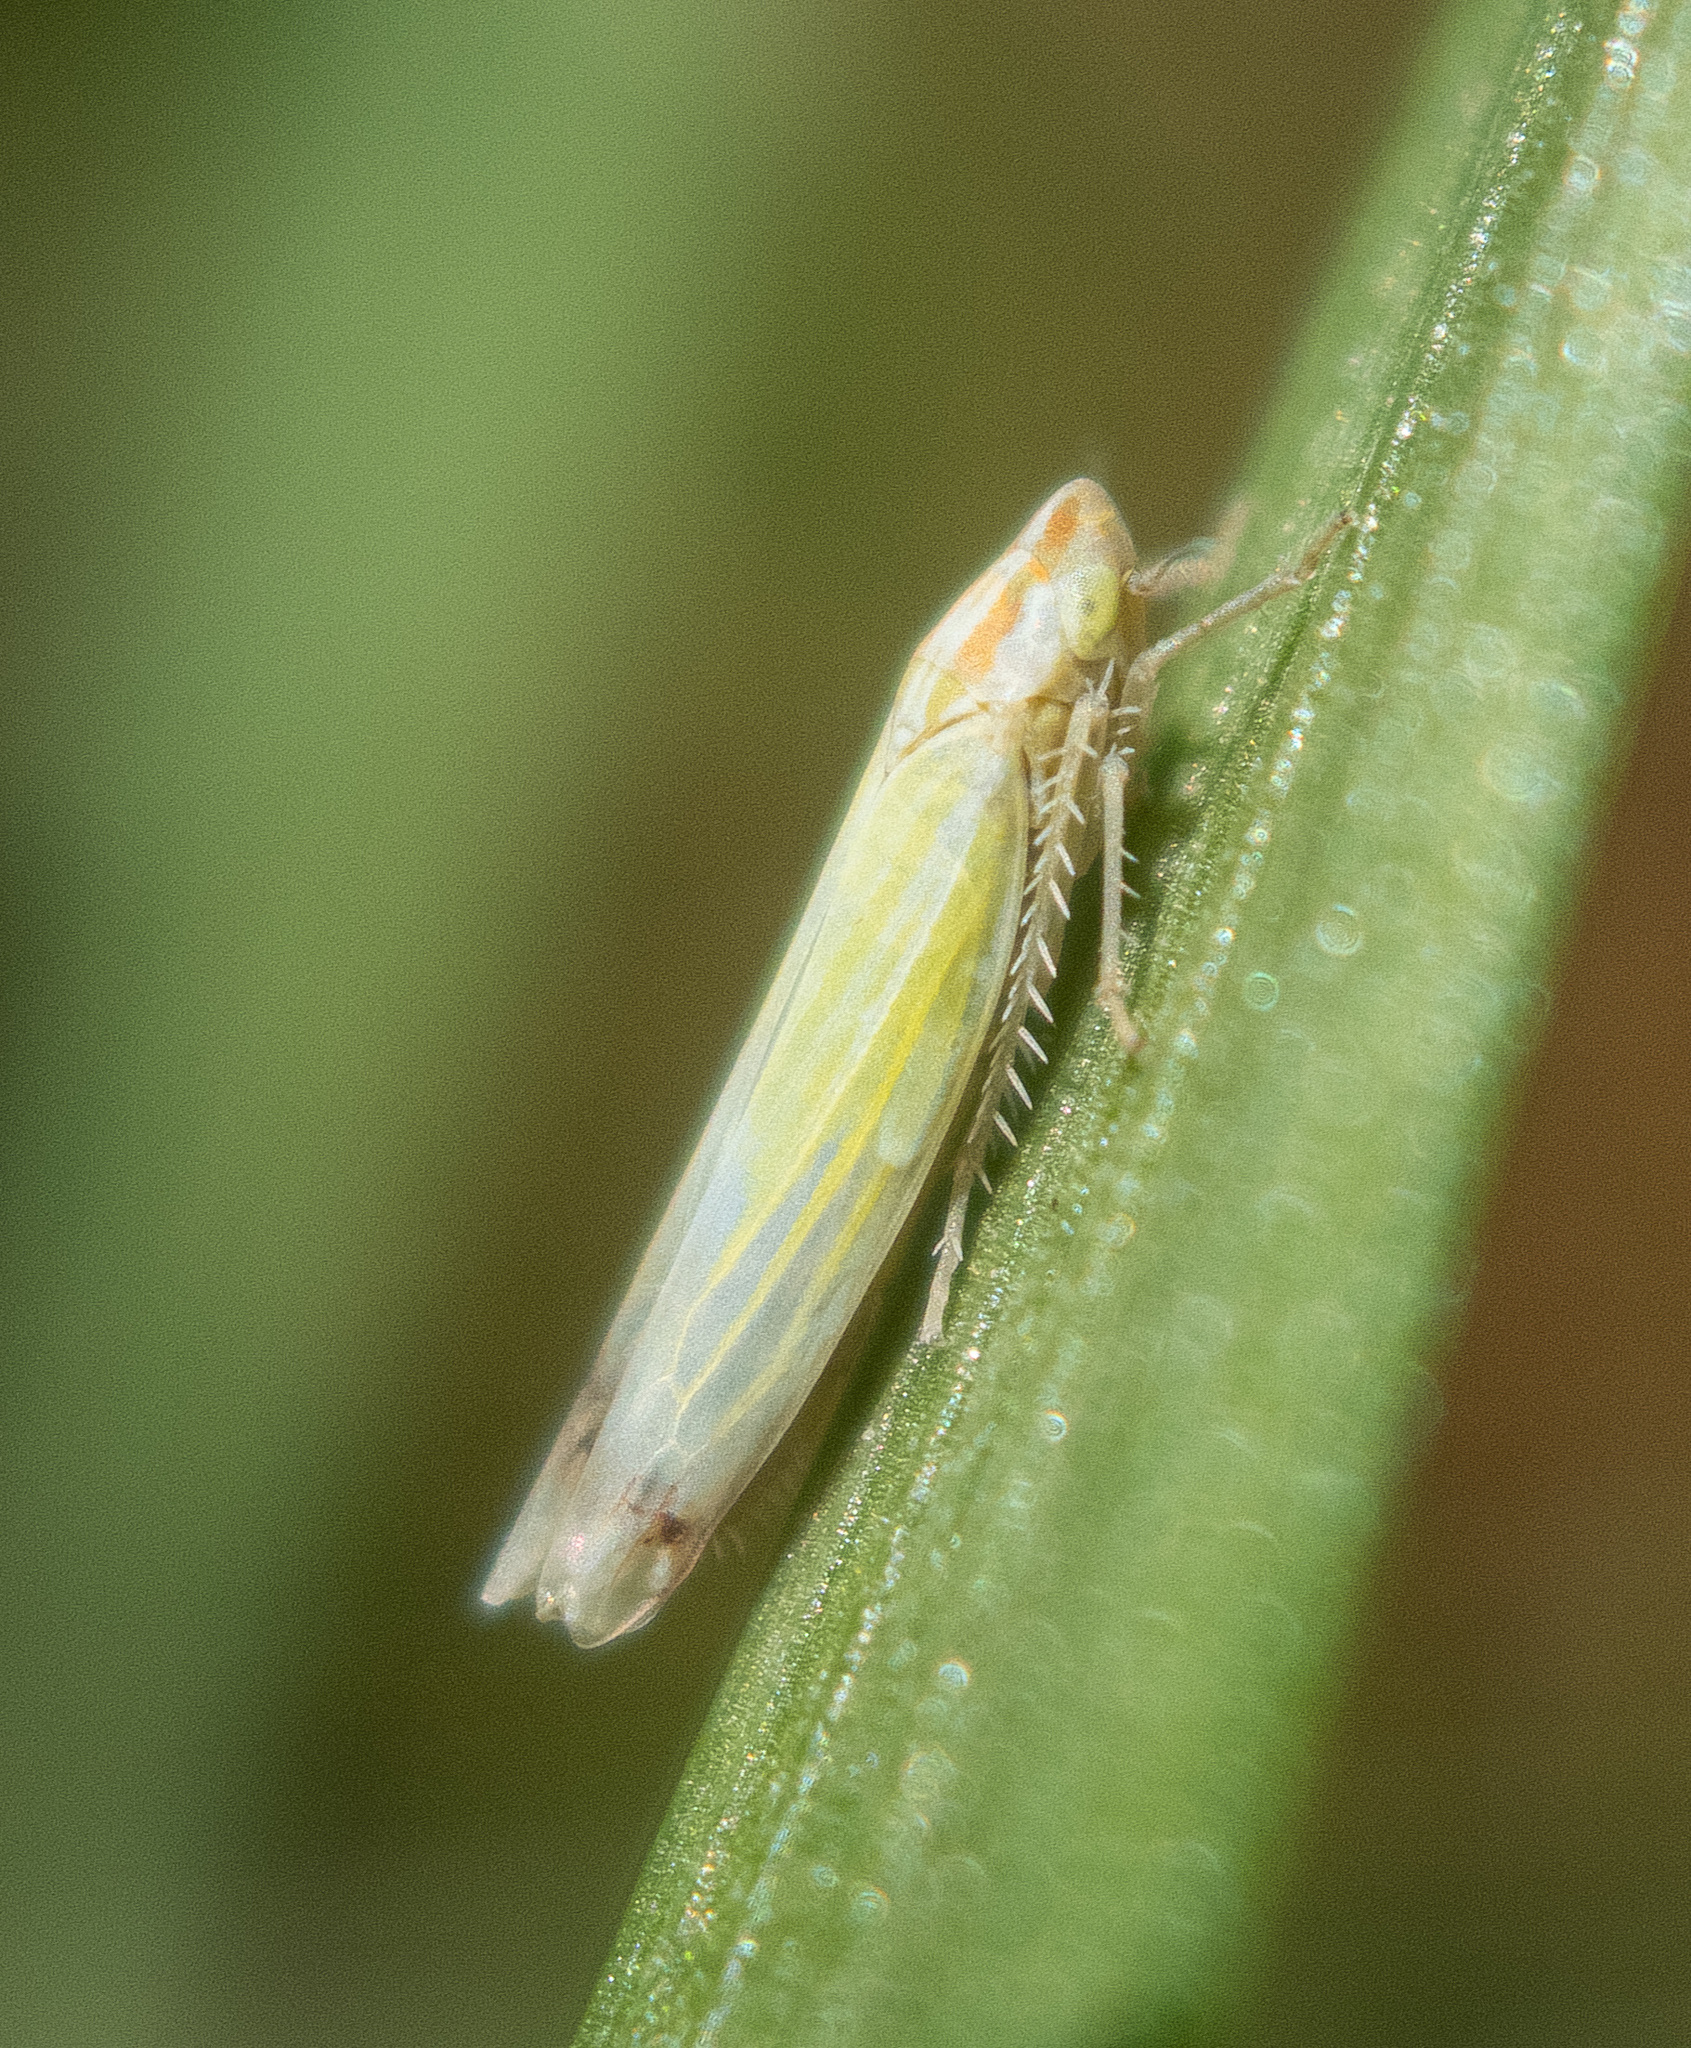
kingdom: Animalia
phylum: Arthropoda
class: Insecta
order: Hemiptera
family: Cicadellidae
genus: Dikraneura
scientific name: Dikraneura angustata
